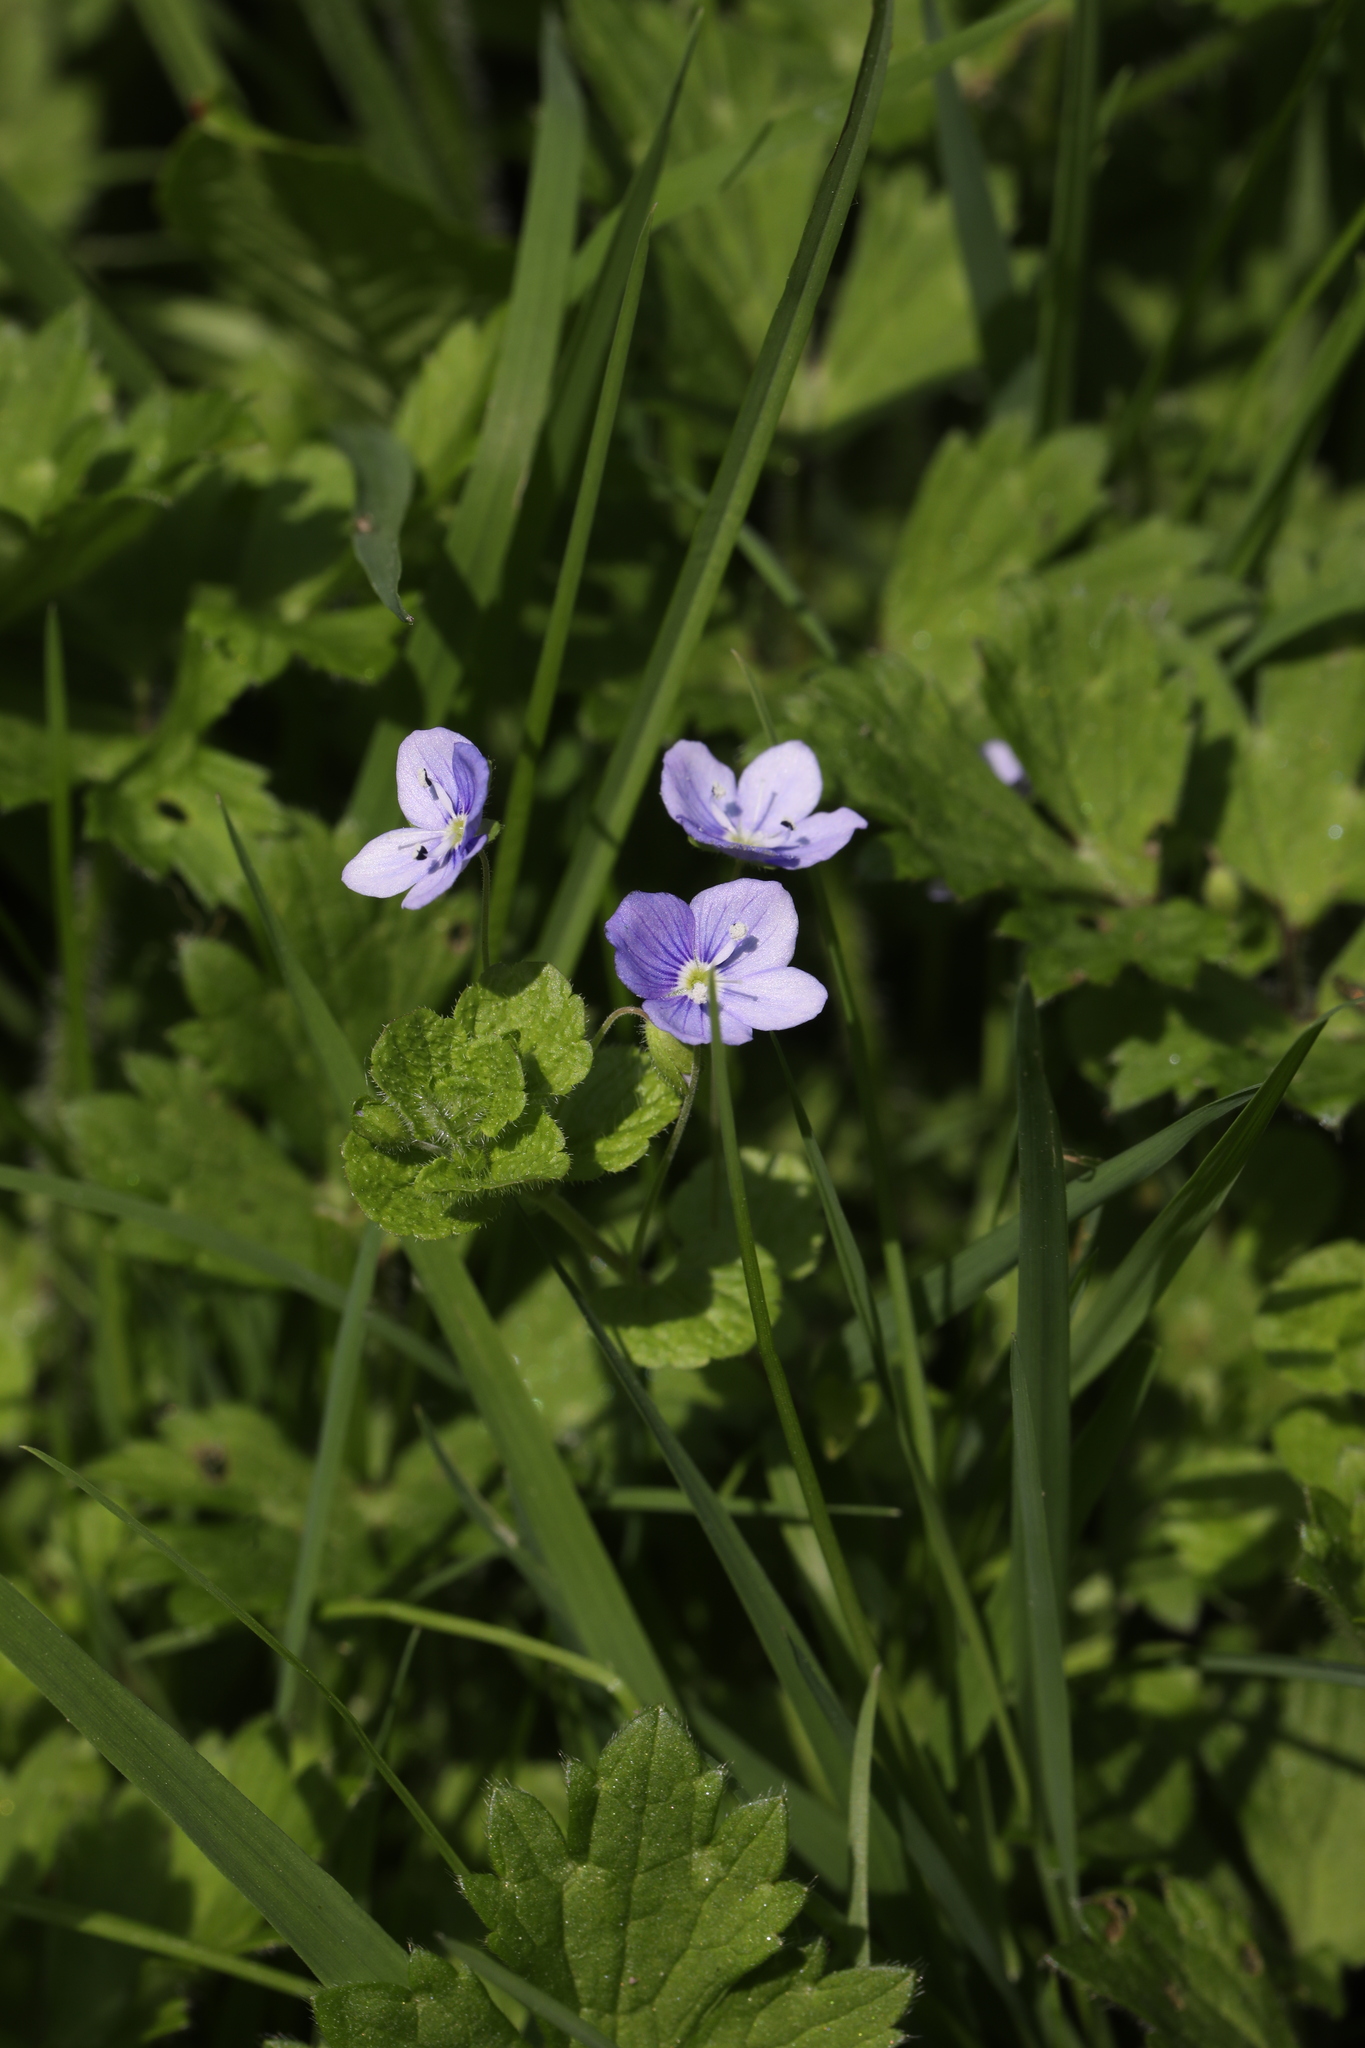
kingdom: Plantae
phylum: Tracheophyta
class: Magnoliopsida
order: Lamiales
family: Plantaginaceae
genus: Veronica
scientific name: Veronica filiformis
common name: Slender speedwell
